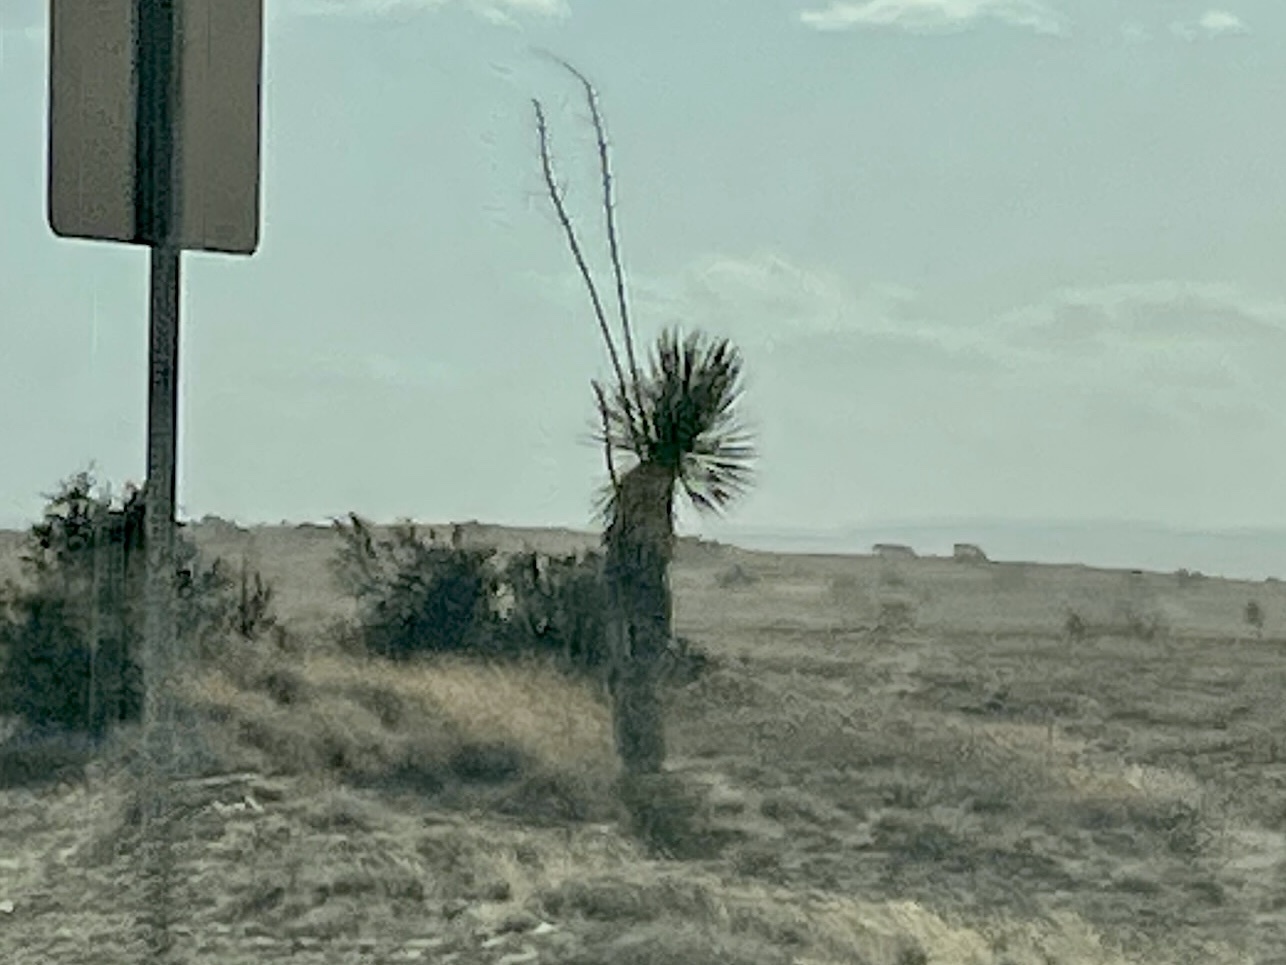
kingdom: Plantae
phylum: Tracheophyta
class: Liliopsida
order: Asparagales
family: Asparagaceae
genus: Yucca
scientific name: Yucca elata
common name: Palmella
